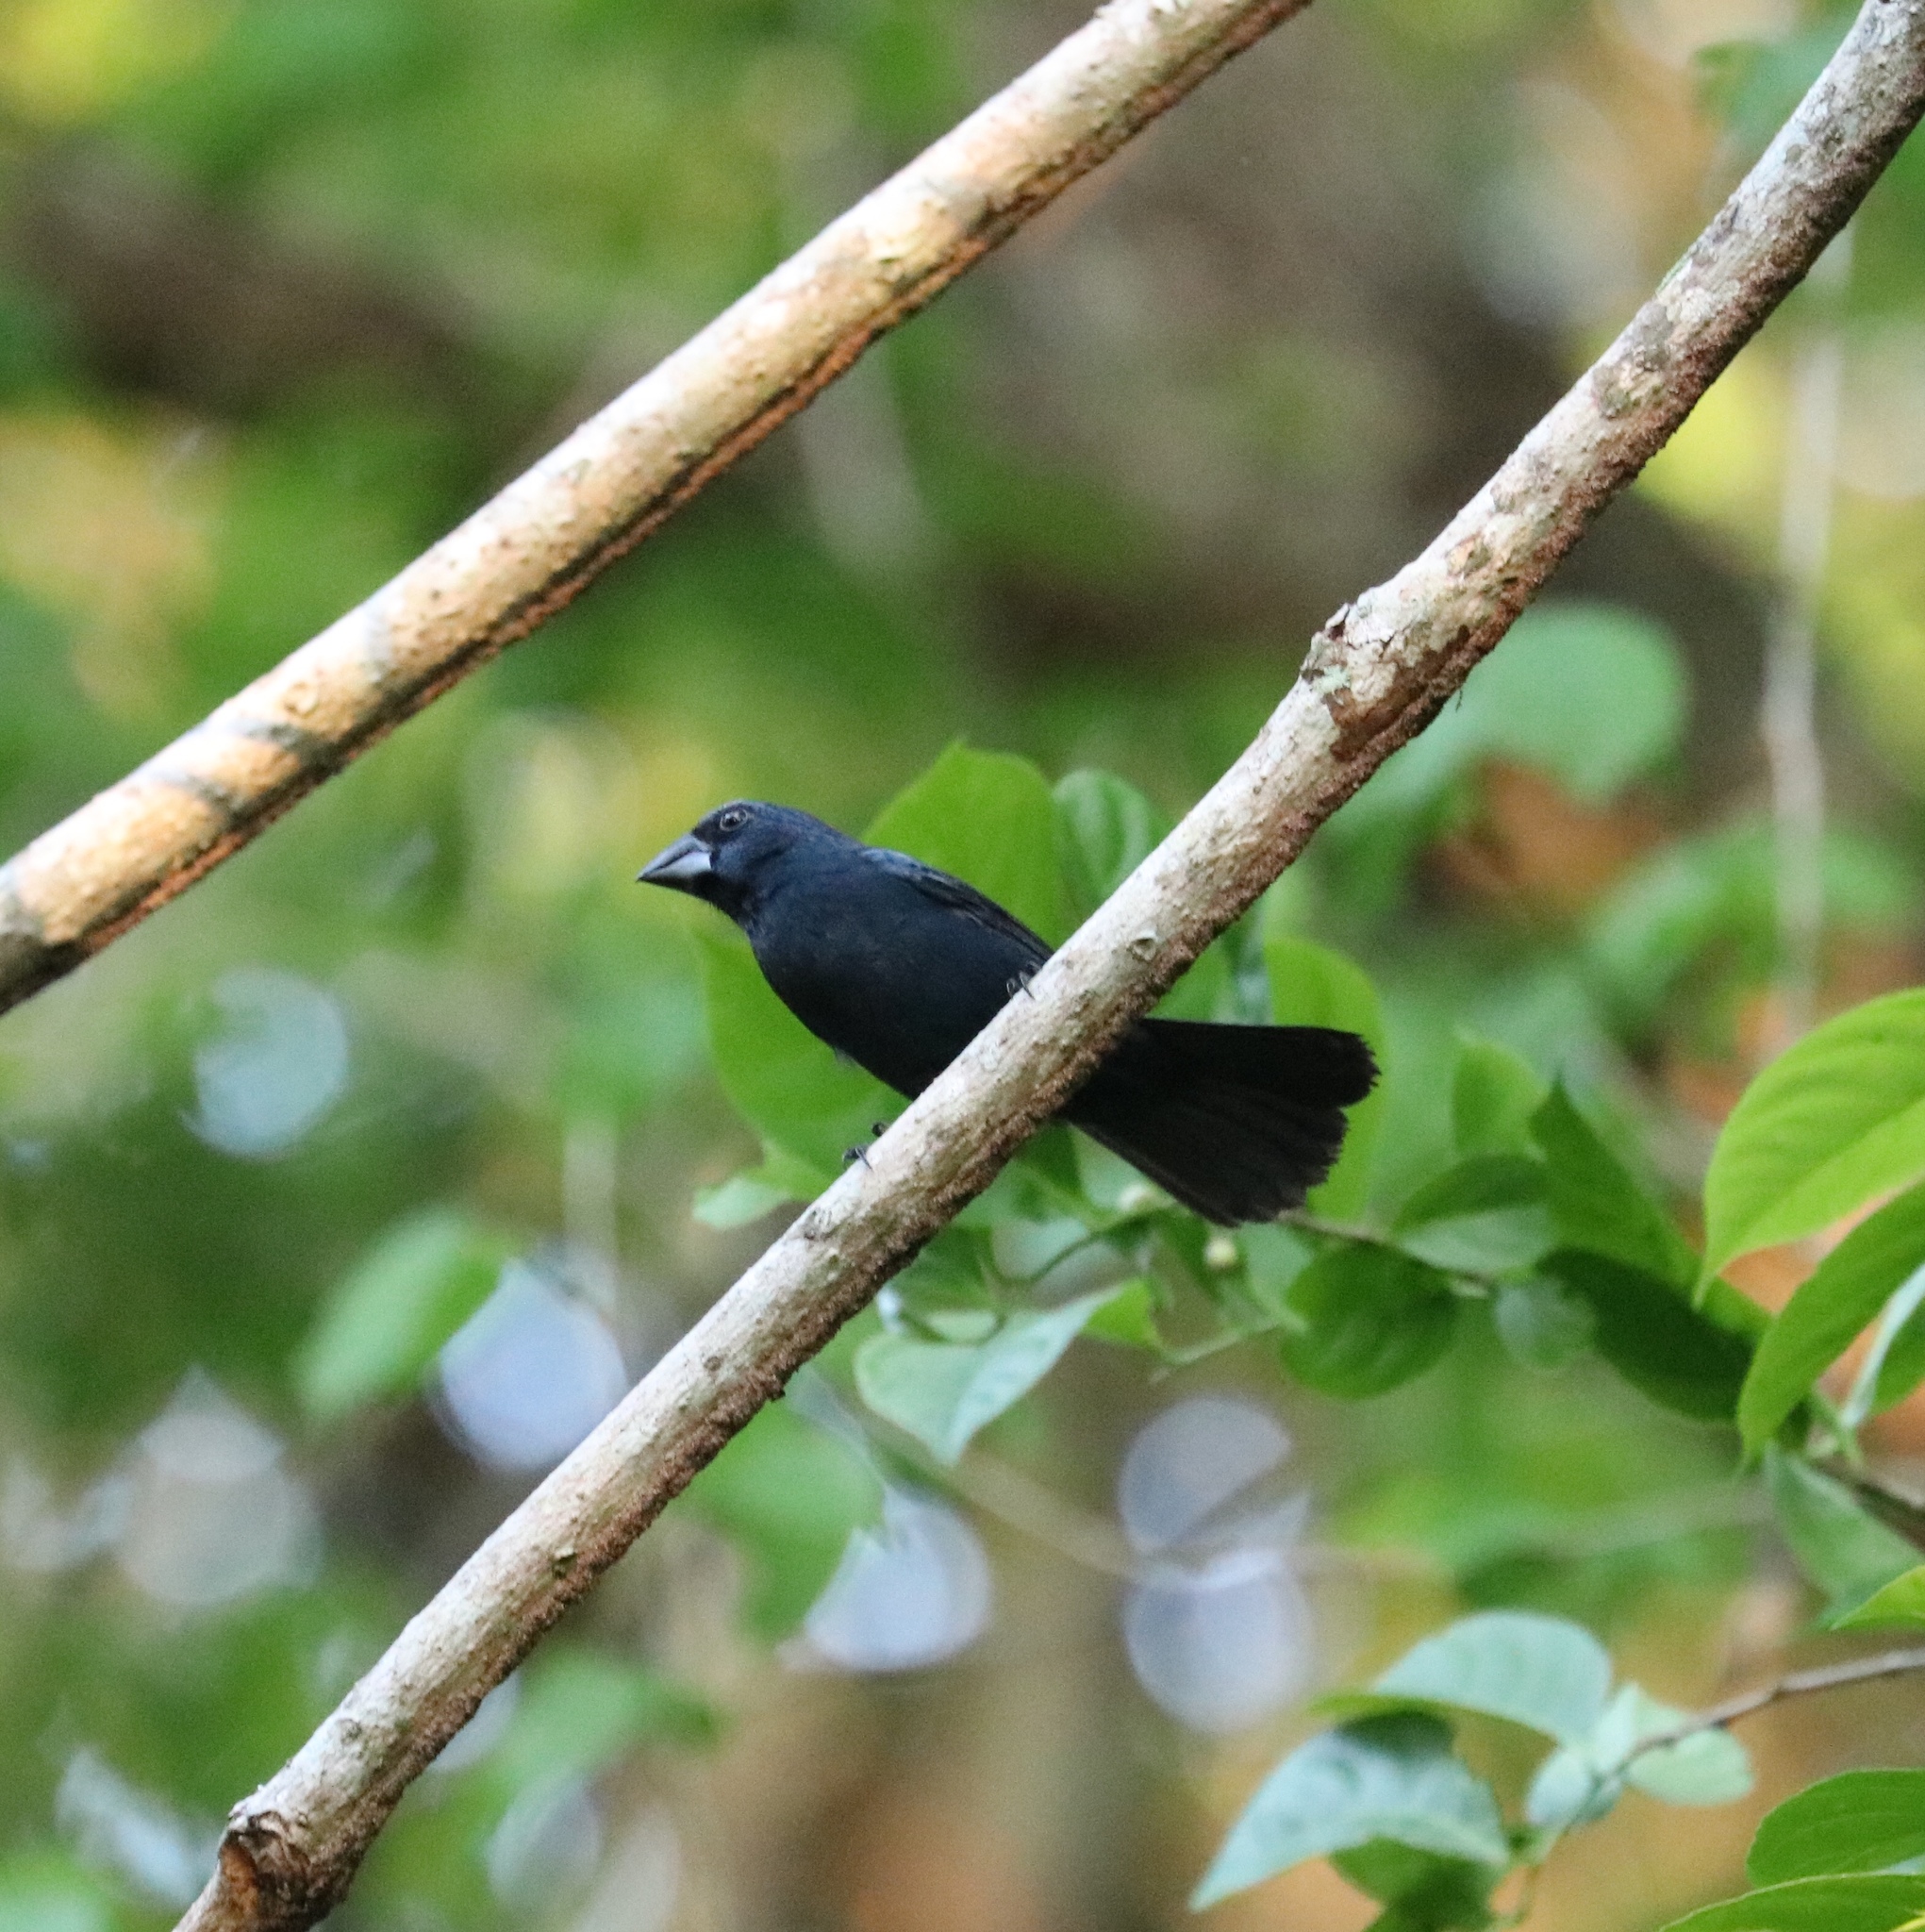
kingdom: Animalia
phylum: Chordata
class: Aves
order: Passeriformes
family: Cardinalidae
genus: Cyanocompsa
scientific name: Cyanocompsa cyanoides
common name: Blue-black grosbeak
